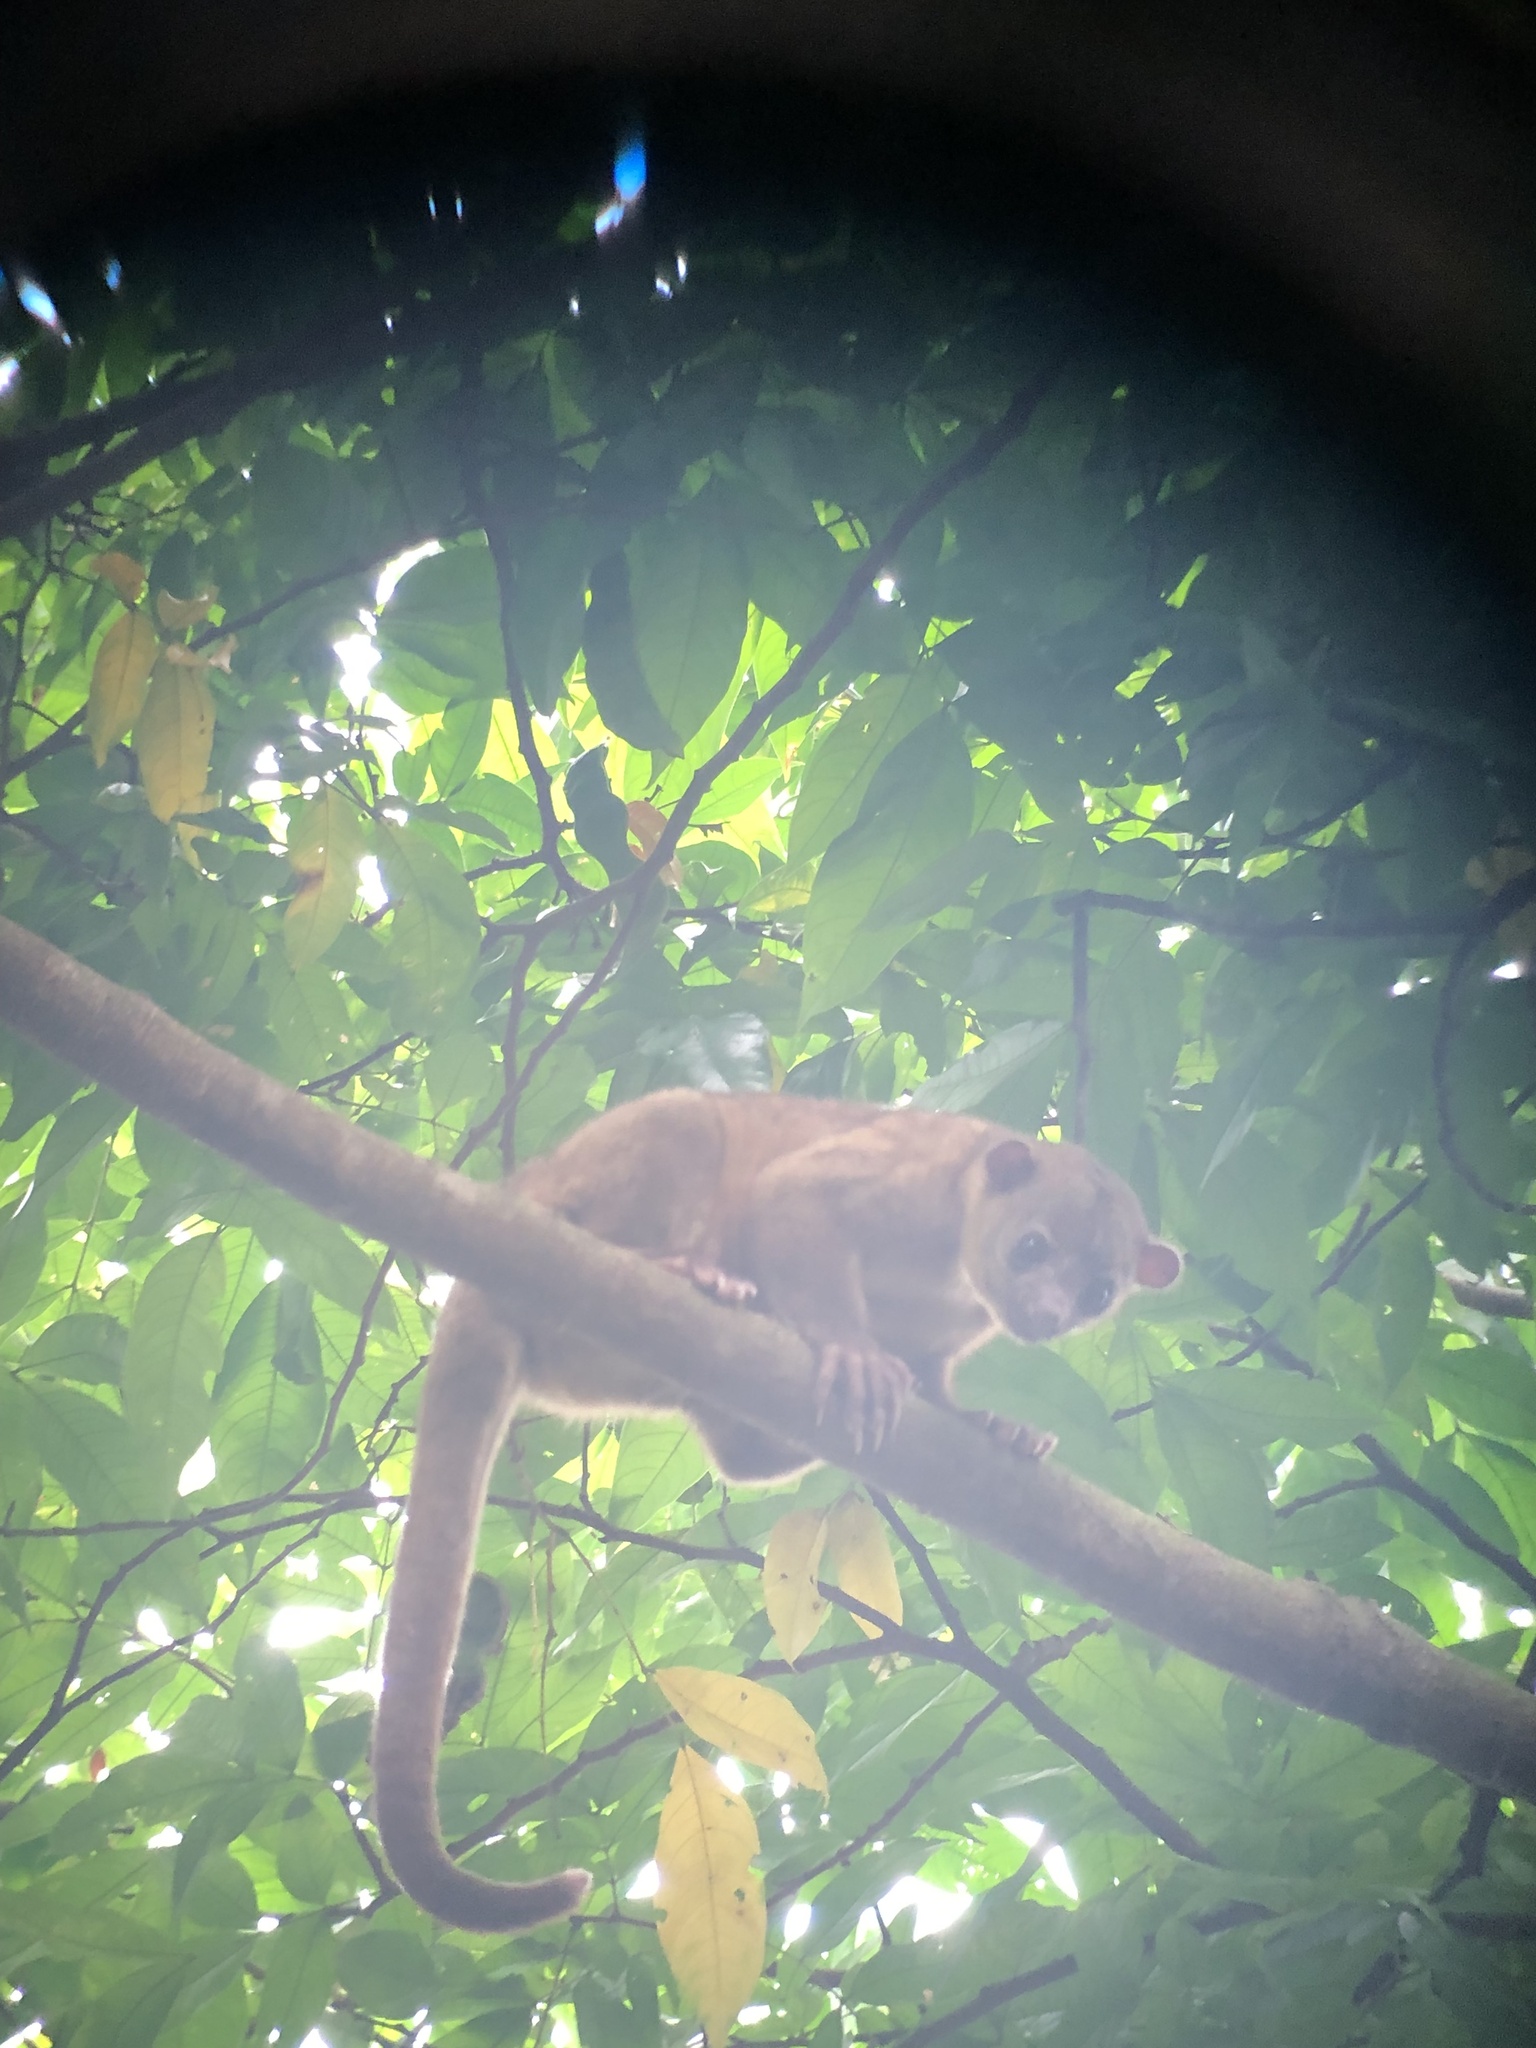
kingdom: Animalia
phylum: Chordata
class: Mammalia
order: Carnivora
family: Procyonidae
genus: Potos
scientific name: Potos flavus
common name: Kinkajou
